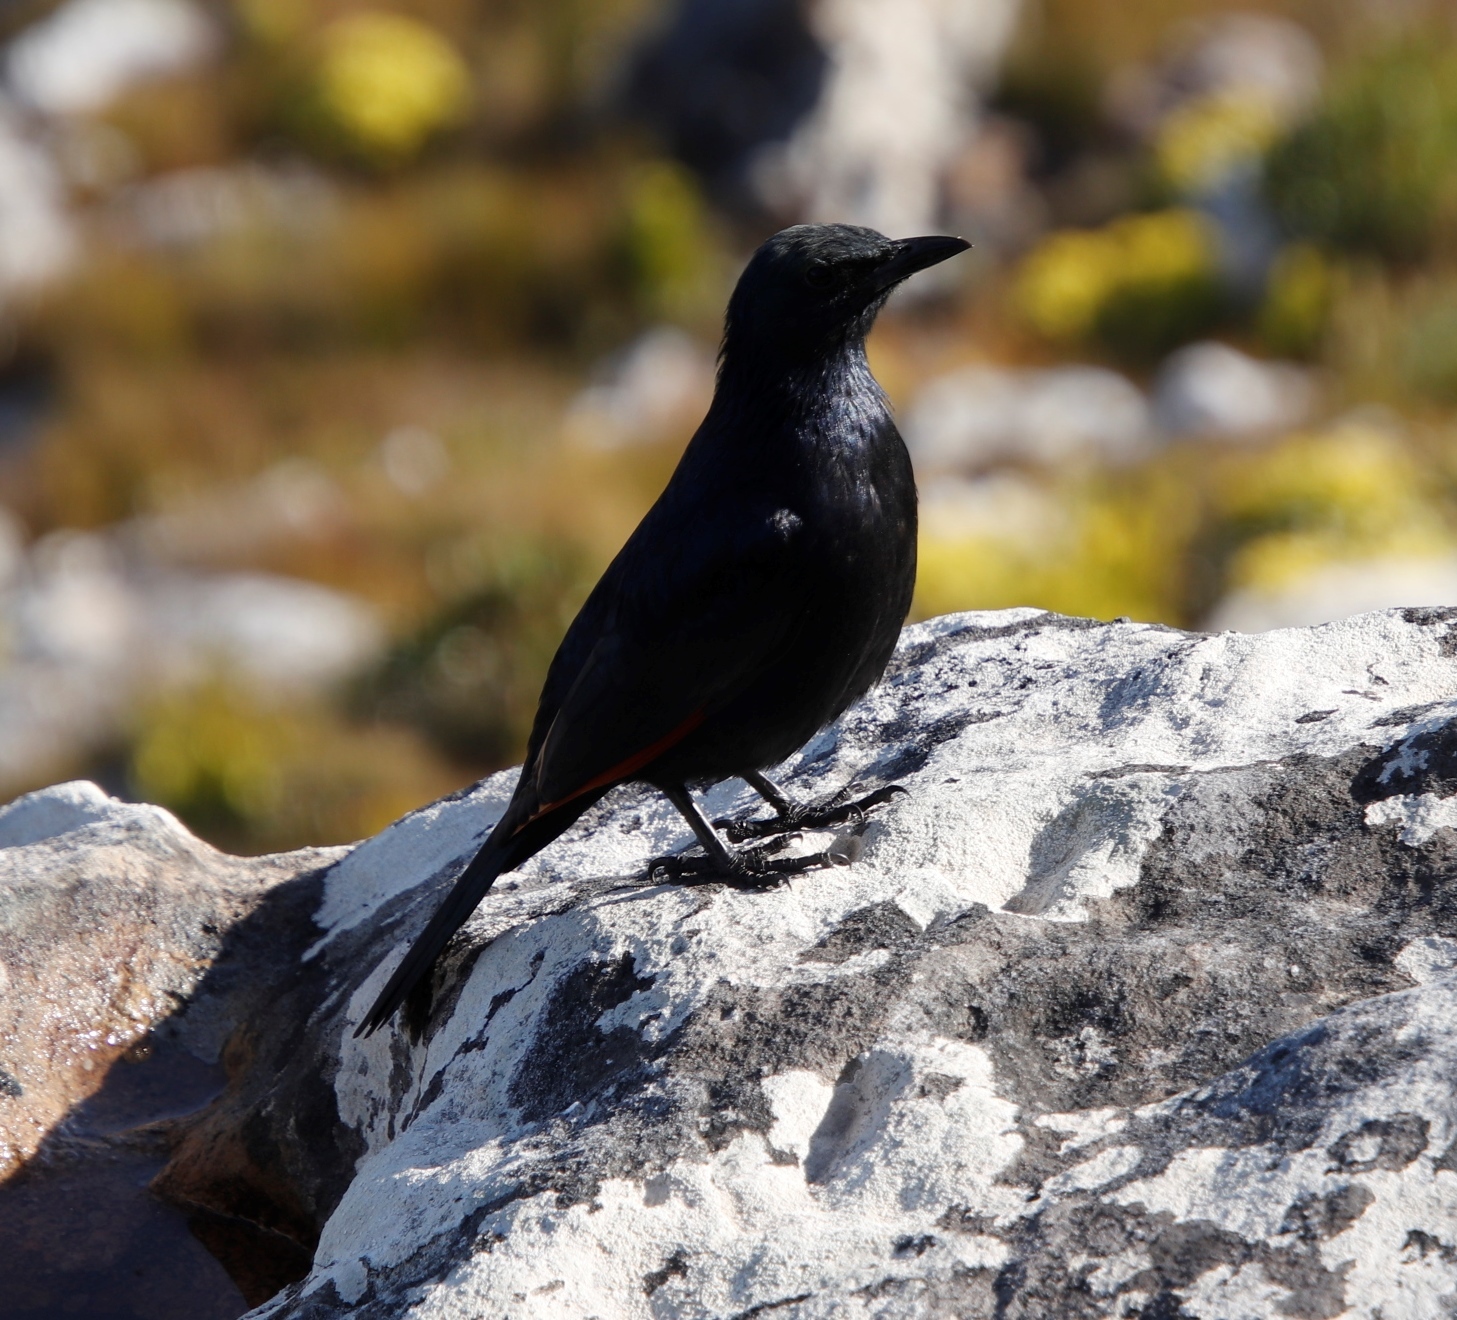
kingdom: Animalia
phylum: Chordata
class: Aves
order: Passeriformes
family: Sturnidae
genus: Onychognathus
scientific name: Onychognathus morio
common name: Red-winged starling
